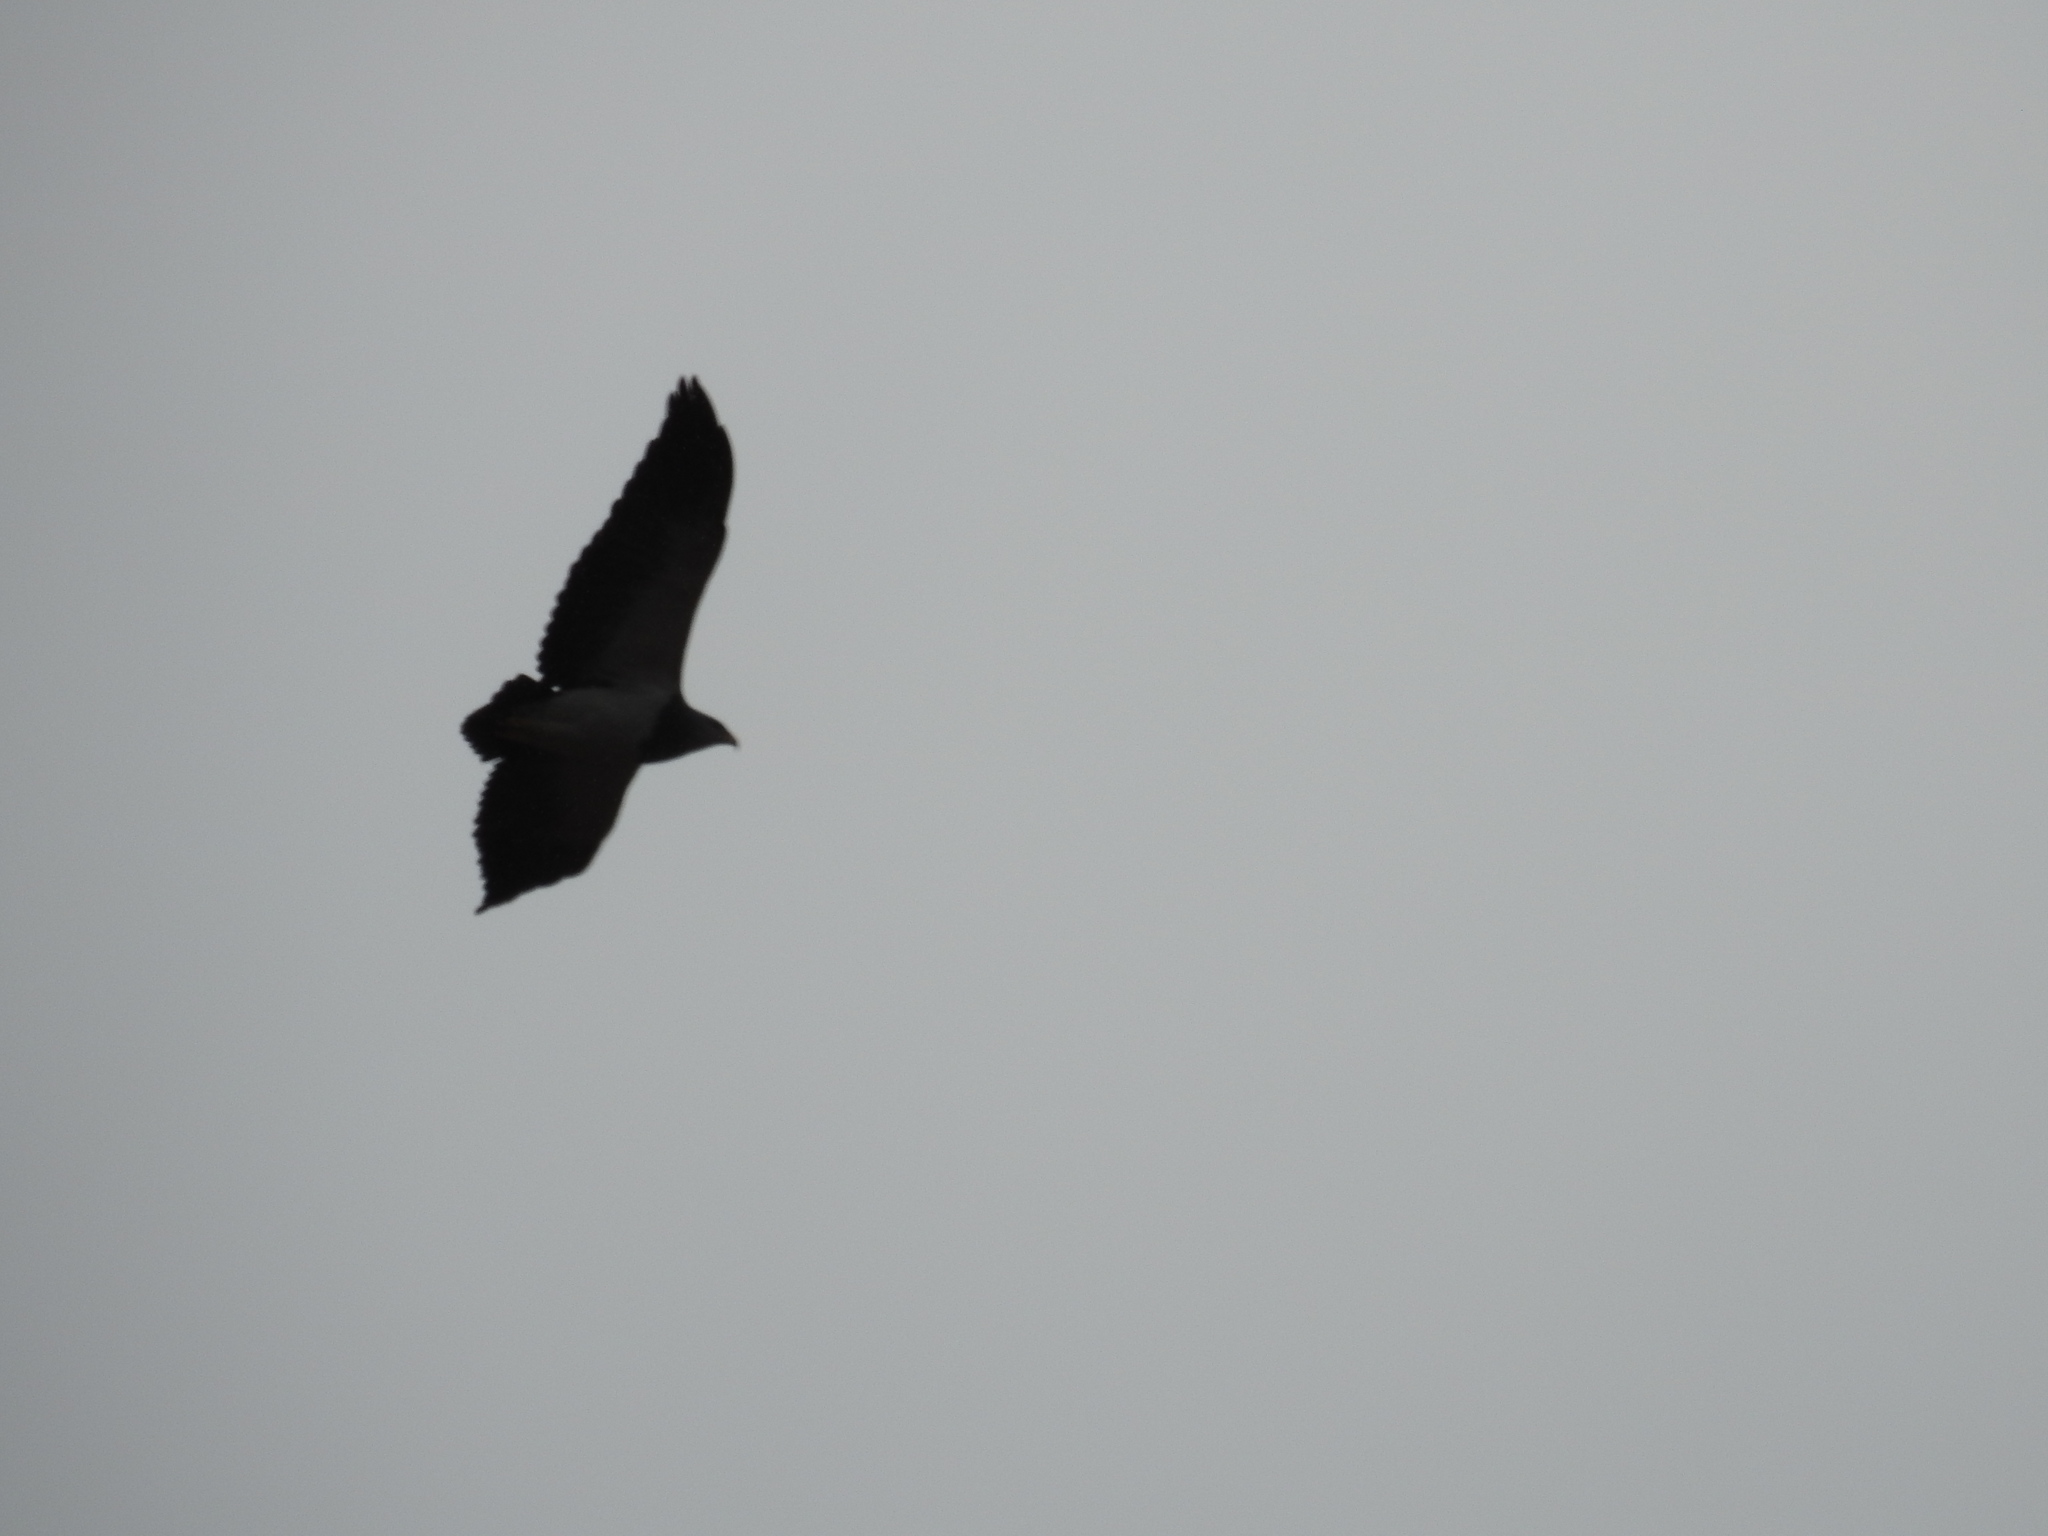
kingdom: Animalia
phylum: Chordata
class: Aves
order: Accipitriformes
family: Accipitridae
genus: Geranoaetus
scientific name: Geranoaetus melanoleucus
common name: Black-chested buzzard-eagle
